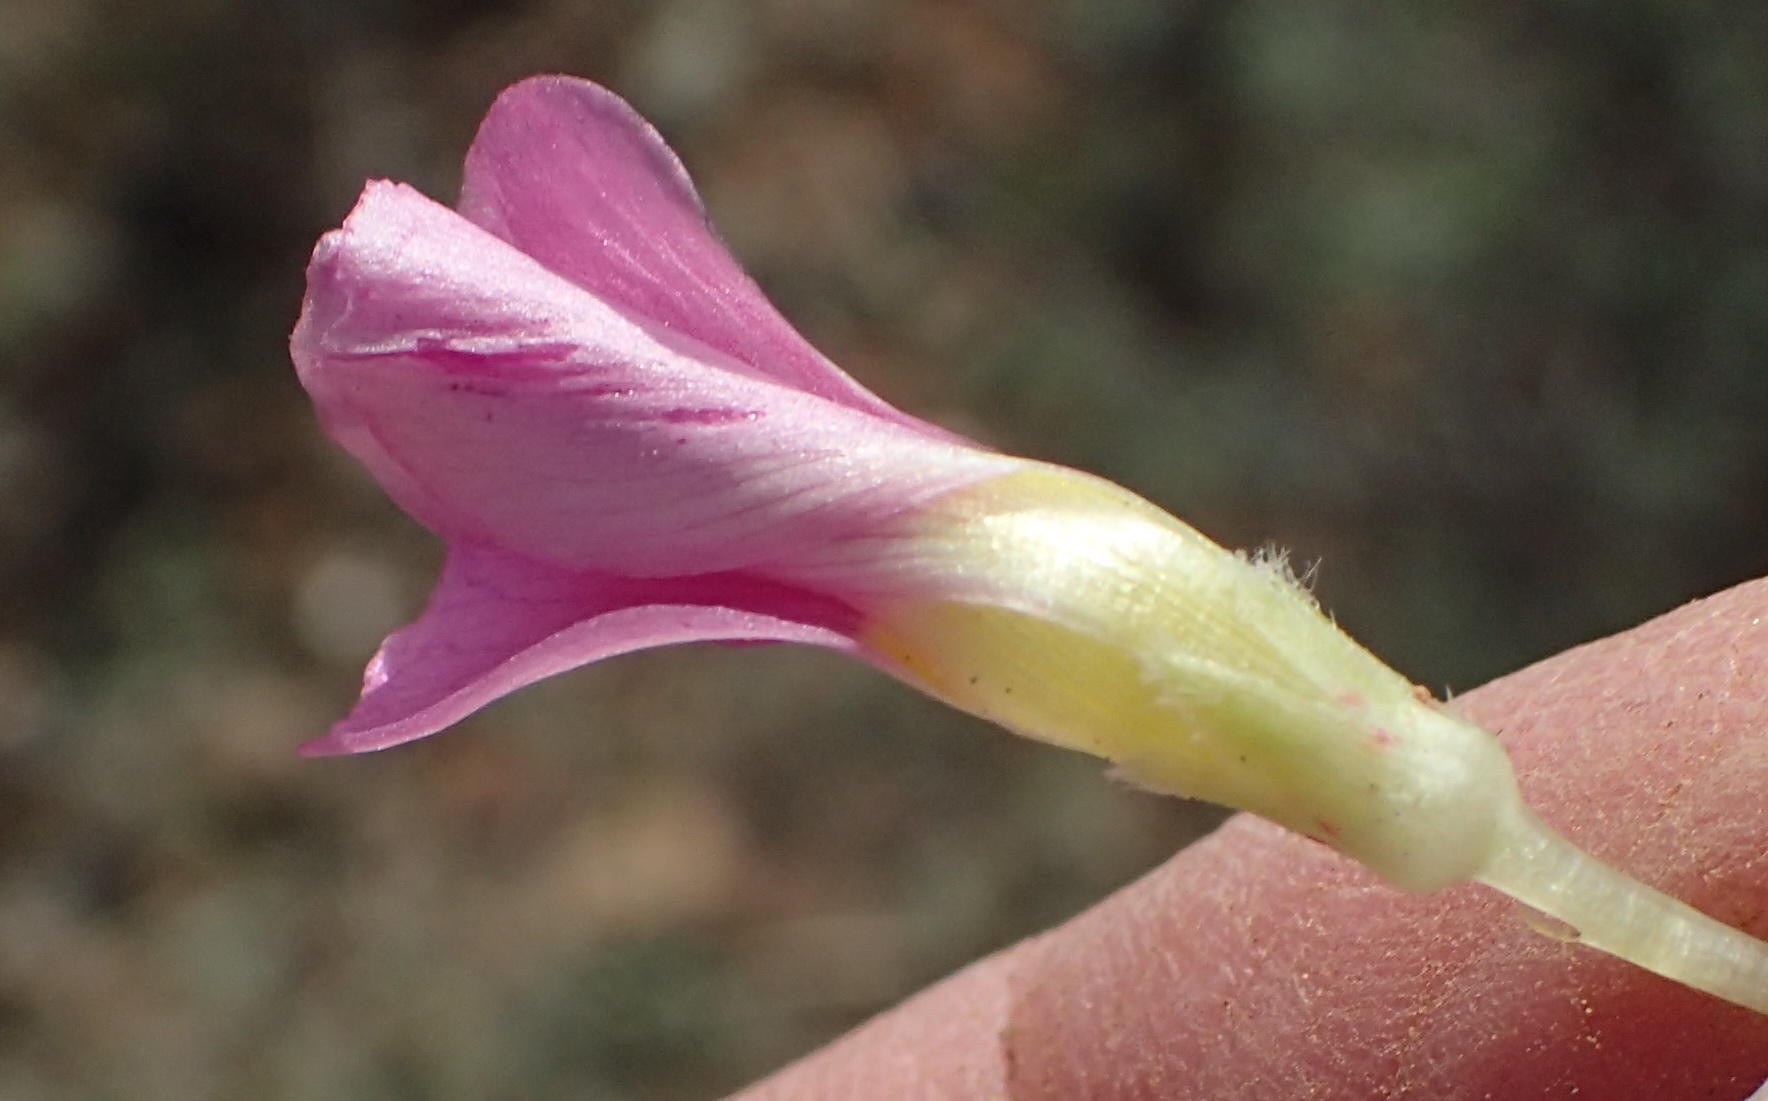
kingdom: Plantae
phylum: Tracheophyta
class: Magnoliopsida
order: Oxalidales
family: Oxalidaceae
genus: Oxalis
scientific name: Oxalis depressa
